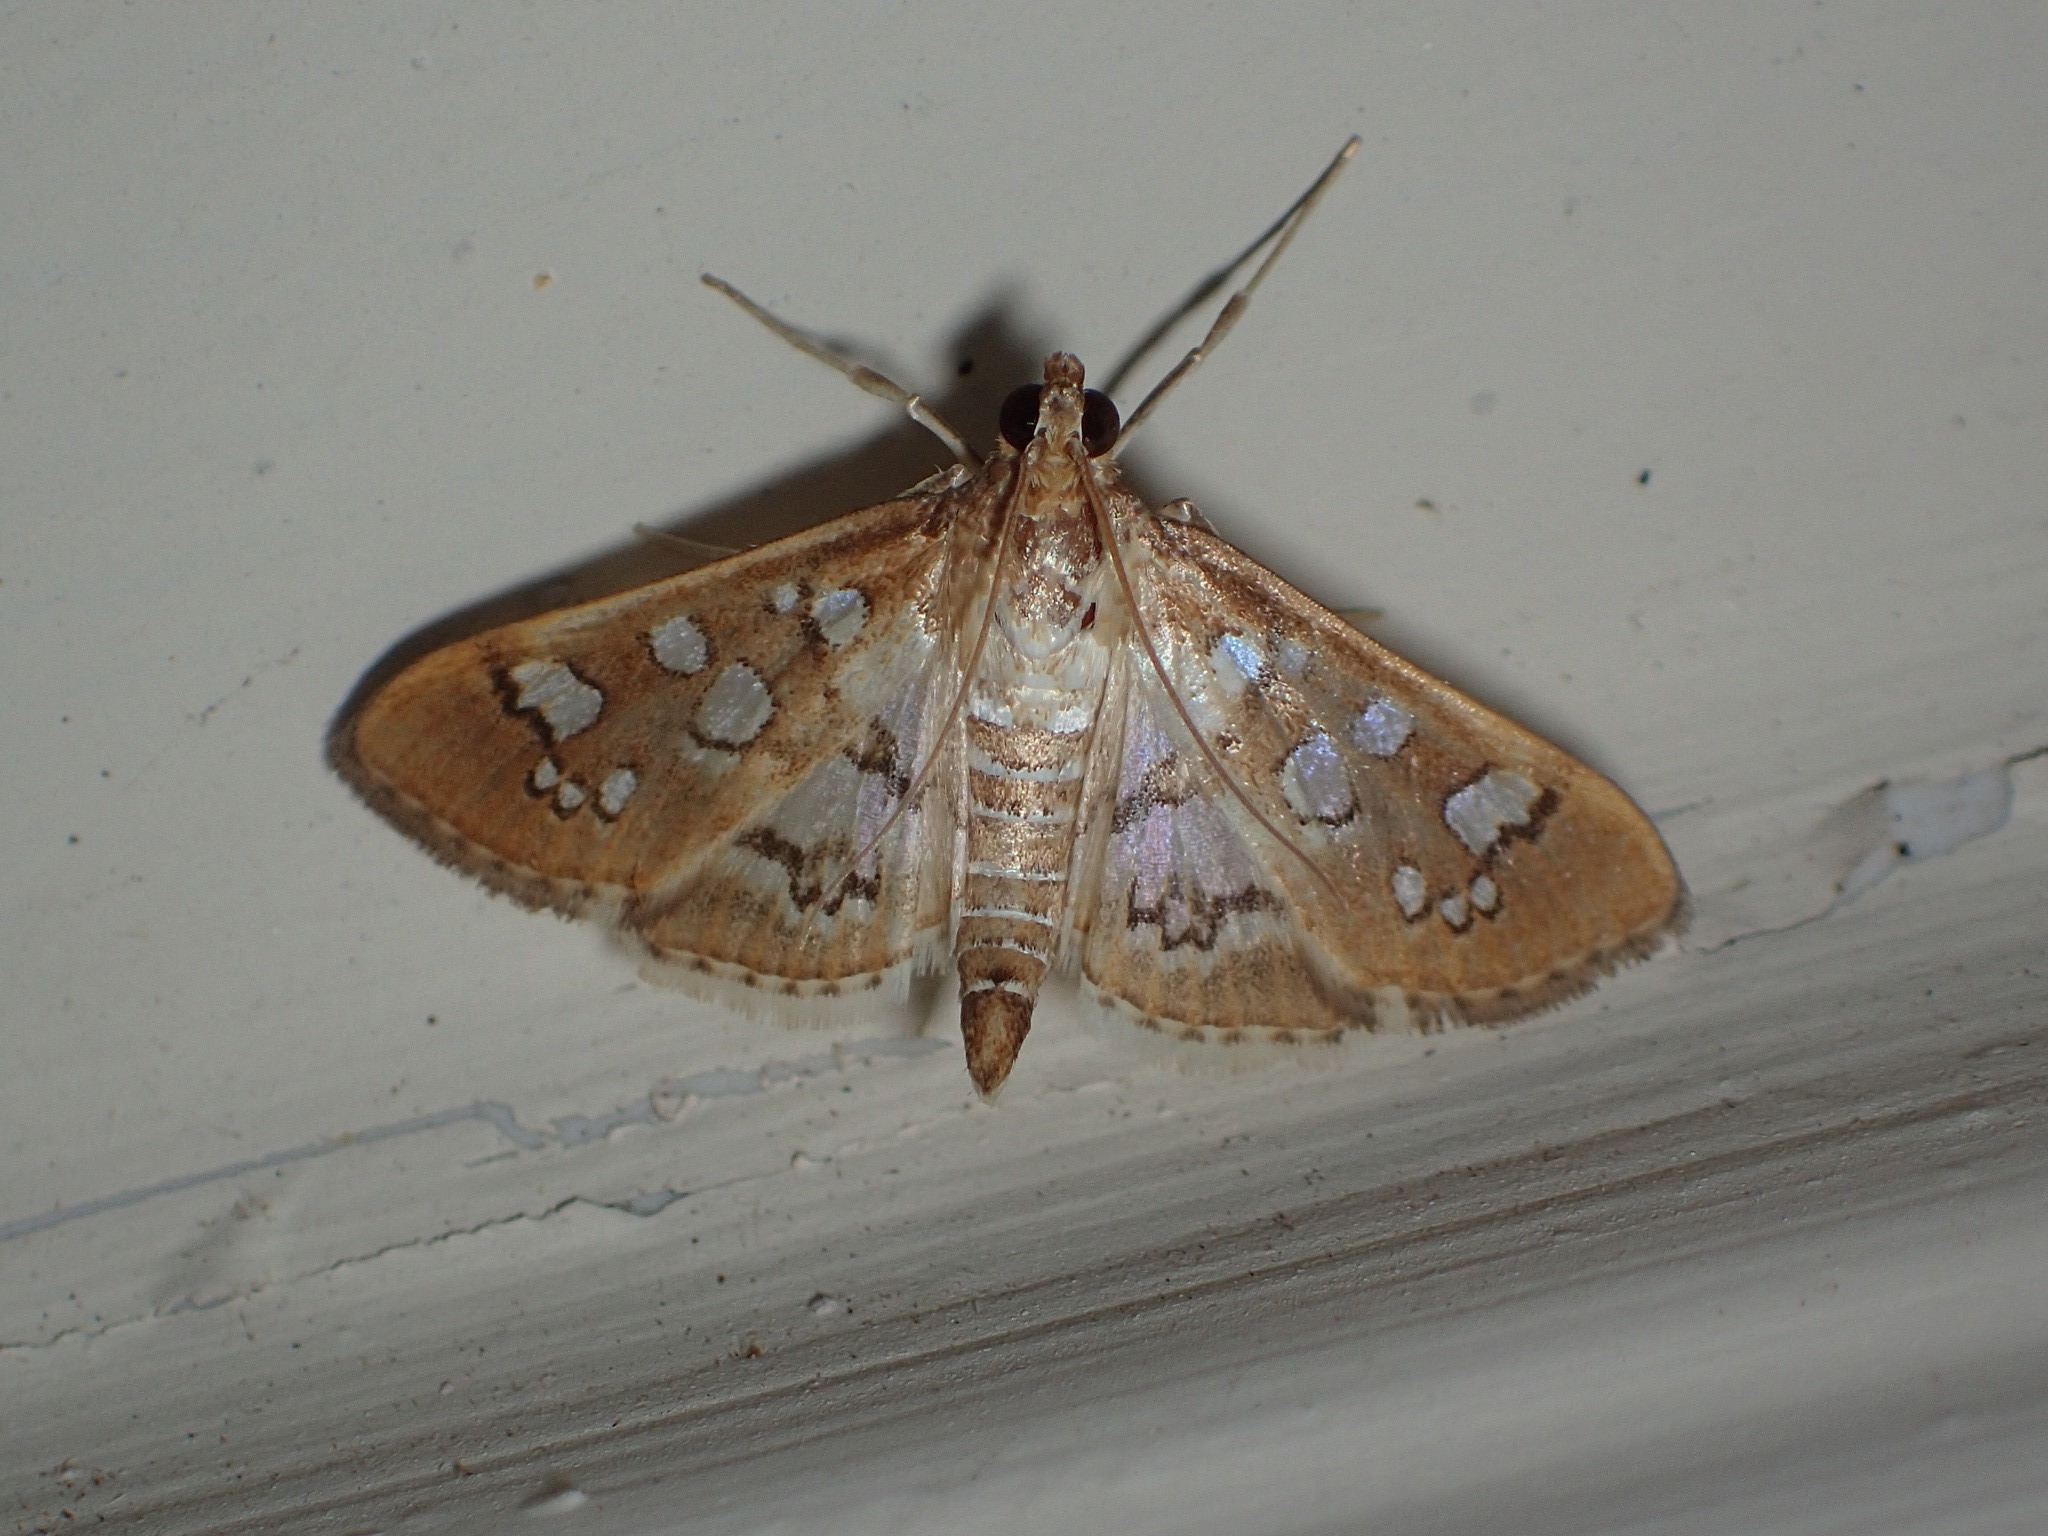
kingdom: Animalia
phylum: Arthropoda
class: Insecta
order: Lepidoptera
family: Crambidae
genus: Samea
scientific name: Samea baccatalis
